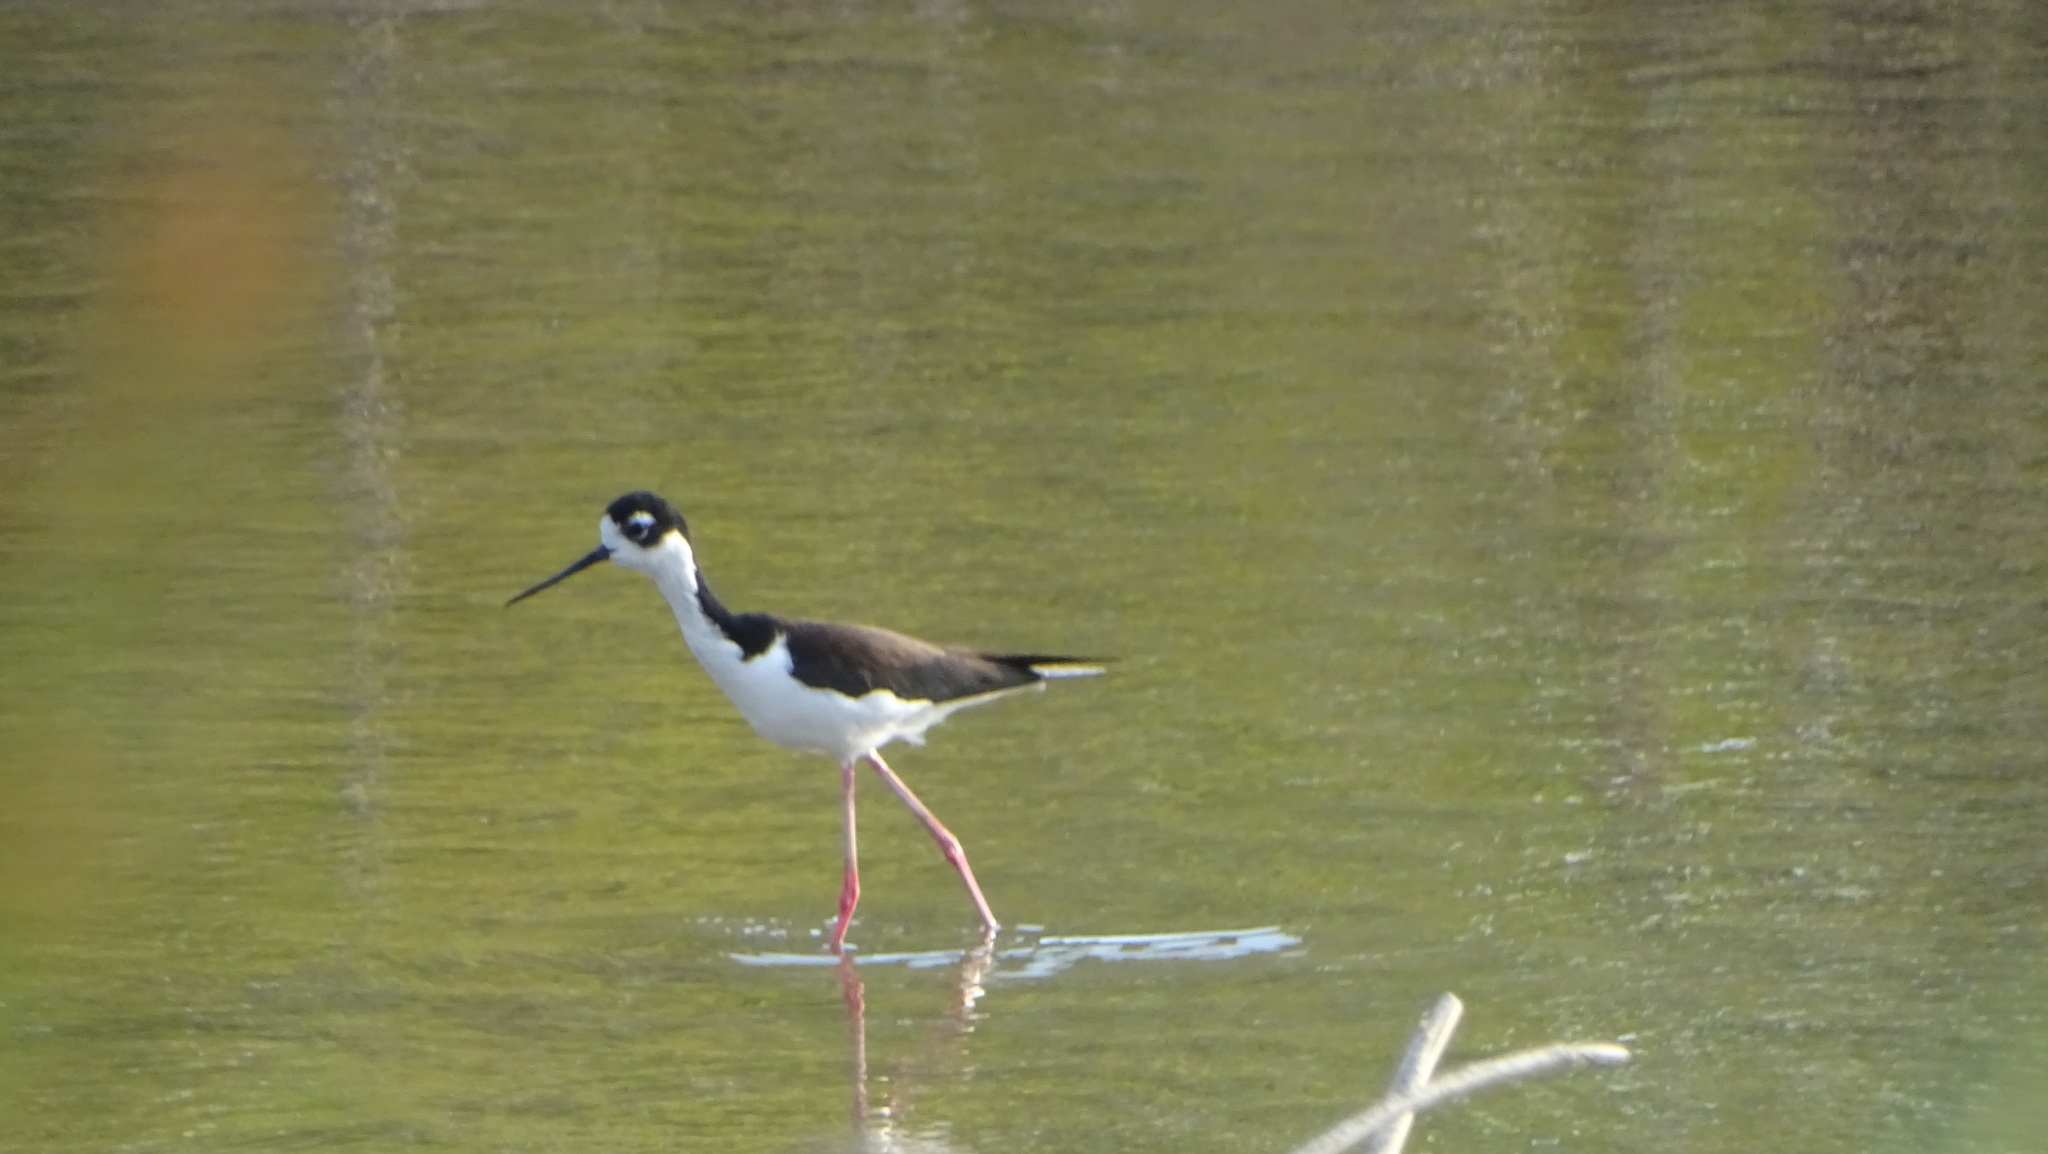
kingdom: Animalia
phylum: Chordata
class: Aves
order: Charadriiformes
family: Recurvirostridae
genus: Himantopus
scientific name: Himantopus mexicanus
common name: Black-necked stilt
